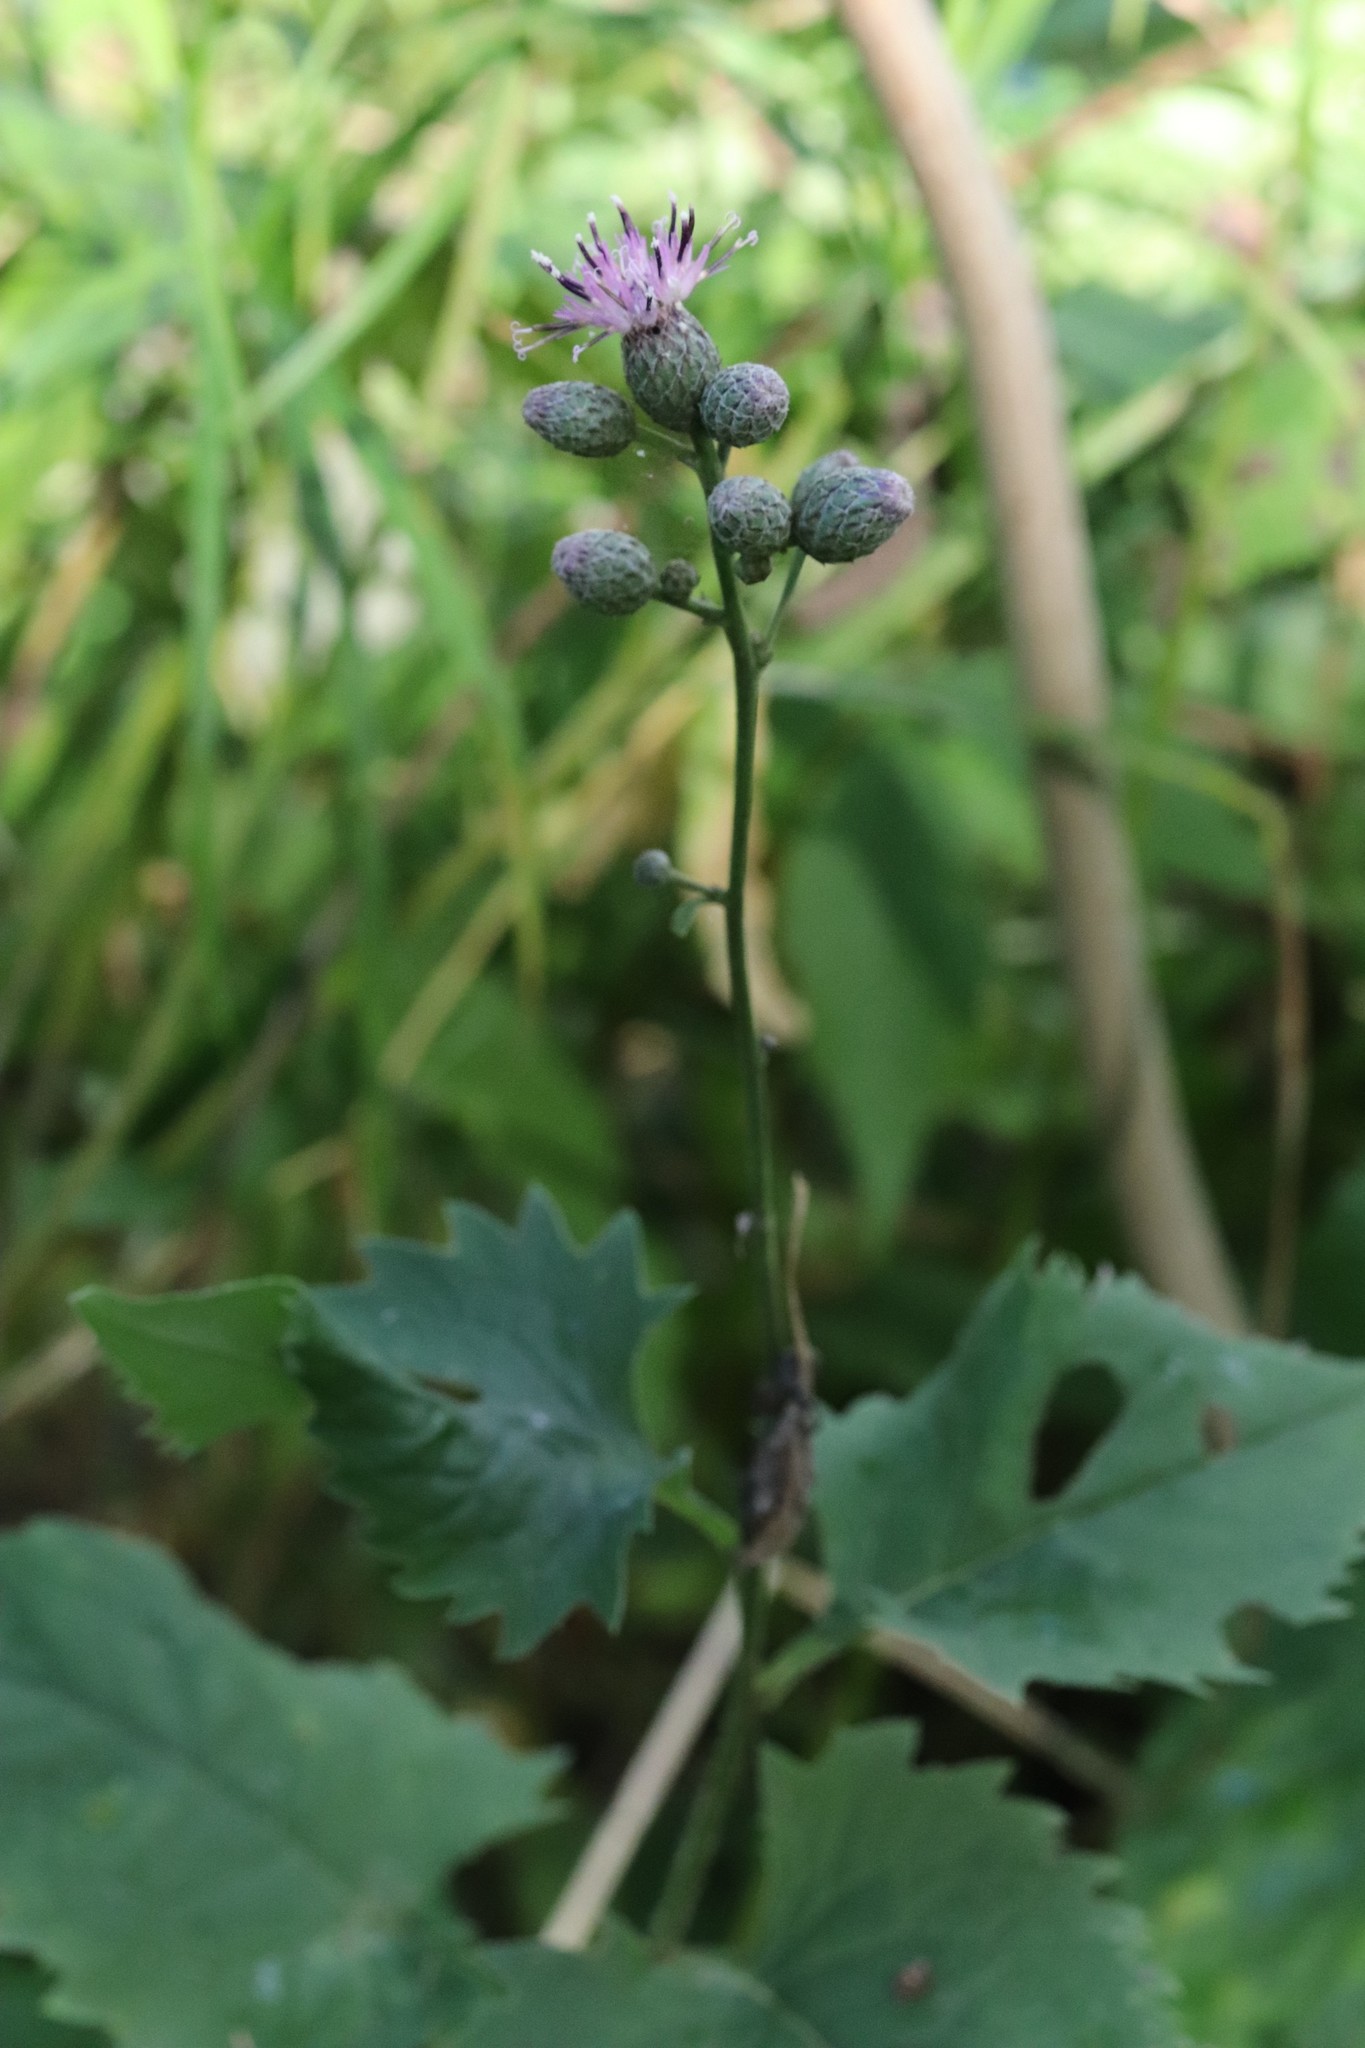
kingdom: Plantae
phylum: Tracheophyta
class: Magnoliopsida
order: Asterales
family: Asteraceae
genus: Saussurea
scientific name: Saussurea grandifolia
